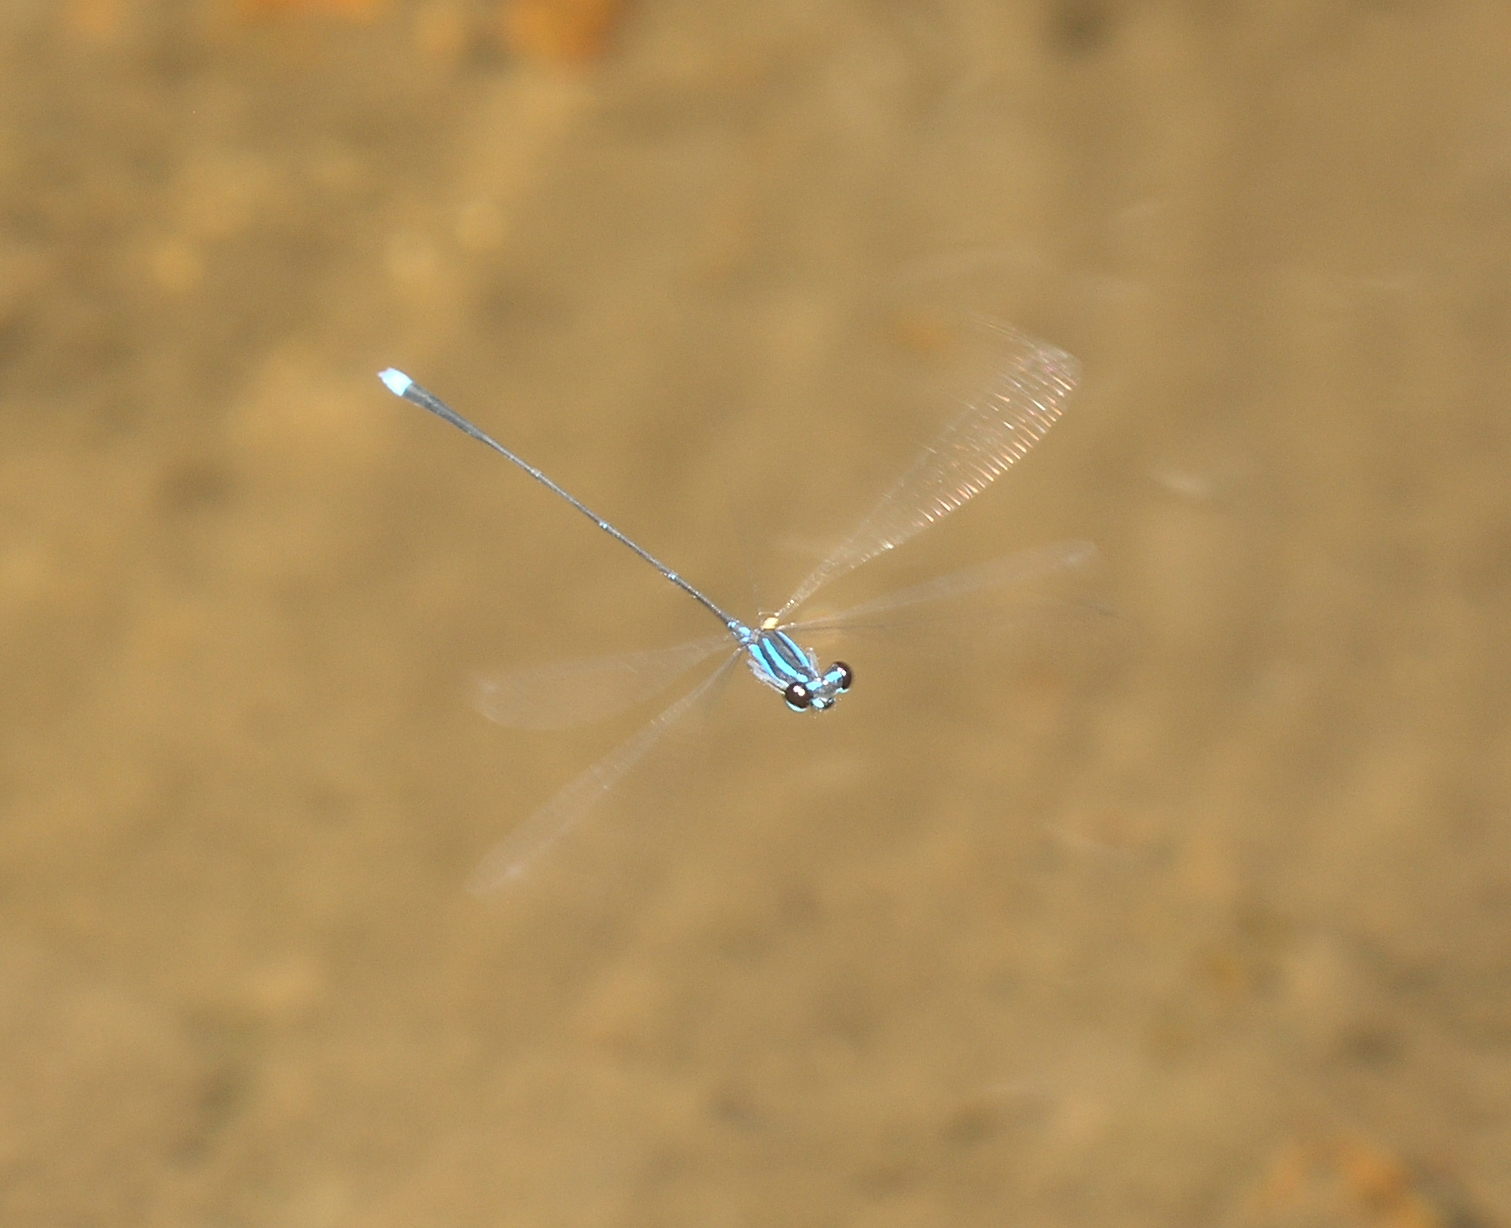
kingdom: Animalia
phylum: Arthropoda
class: Insecta
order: Odonata
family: Platycnemididae
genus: Prodasineura
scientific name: Prodasineura laidlawii
